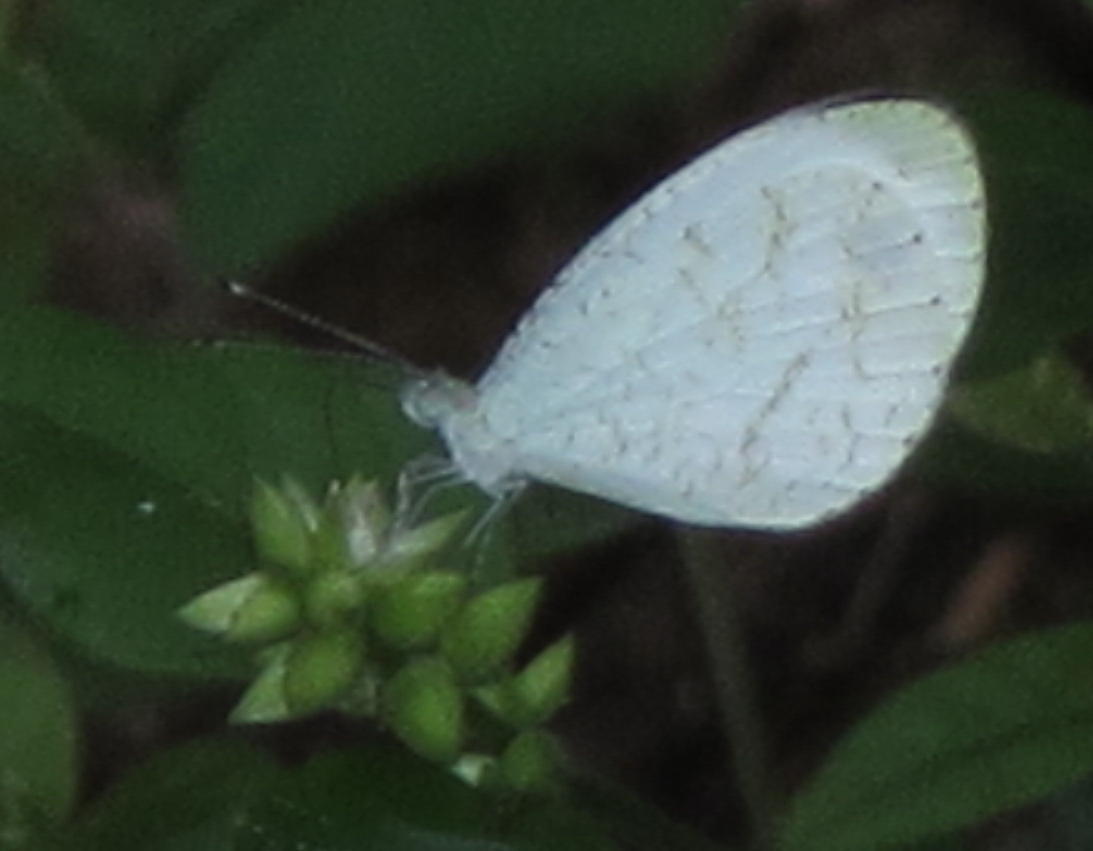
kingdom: Animalia
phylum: Arthropoda
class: Insecta
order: Lepidoptera
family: Pieridae
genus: Leptosia
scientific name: Leptosia alcesta
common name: African wood white
